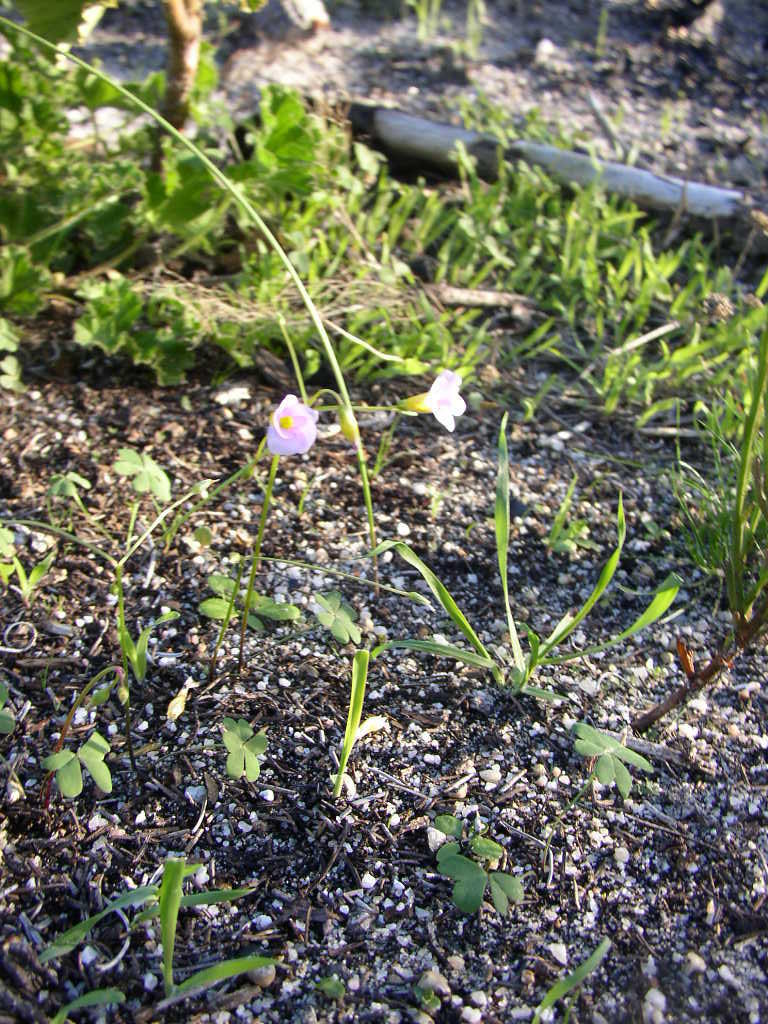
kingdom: Plantae
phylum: Tracheophyta
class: Magnoliopsida
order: Oxalidales
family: Oxalidaceae
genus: Oxalis
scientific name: Oxalis caprina
